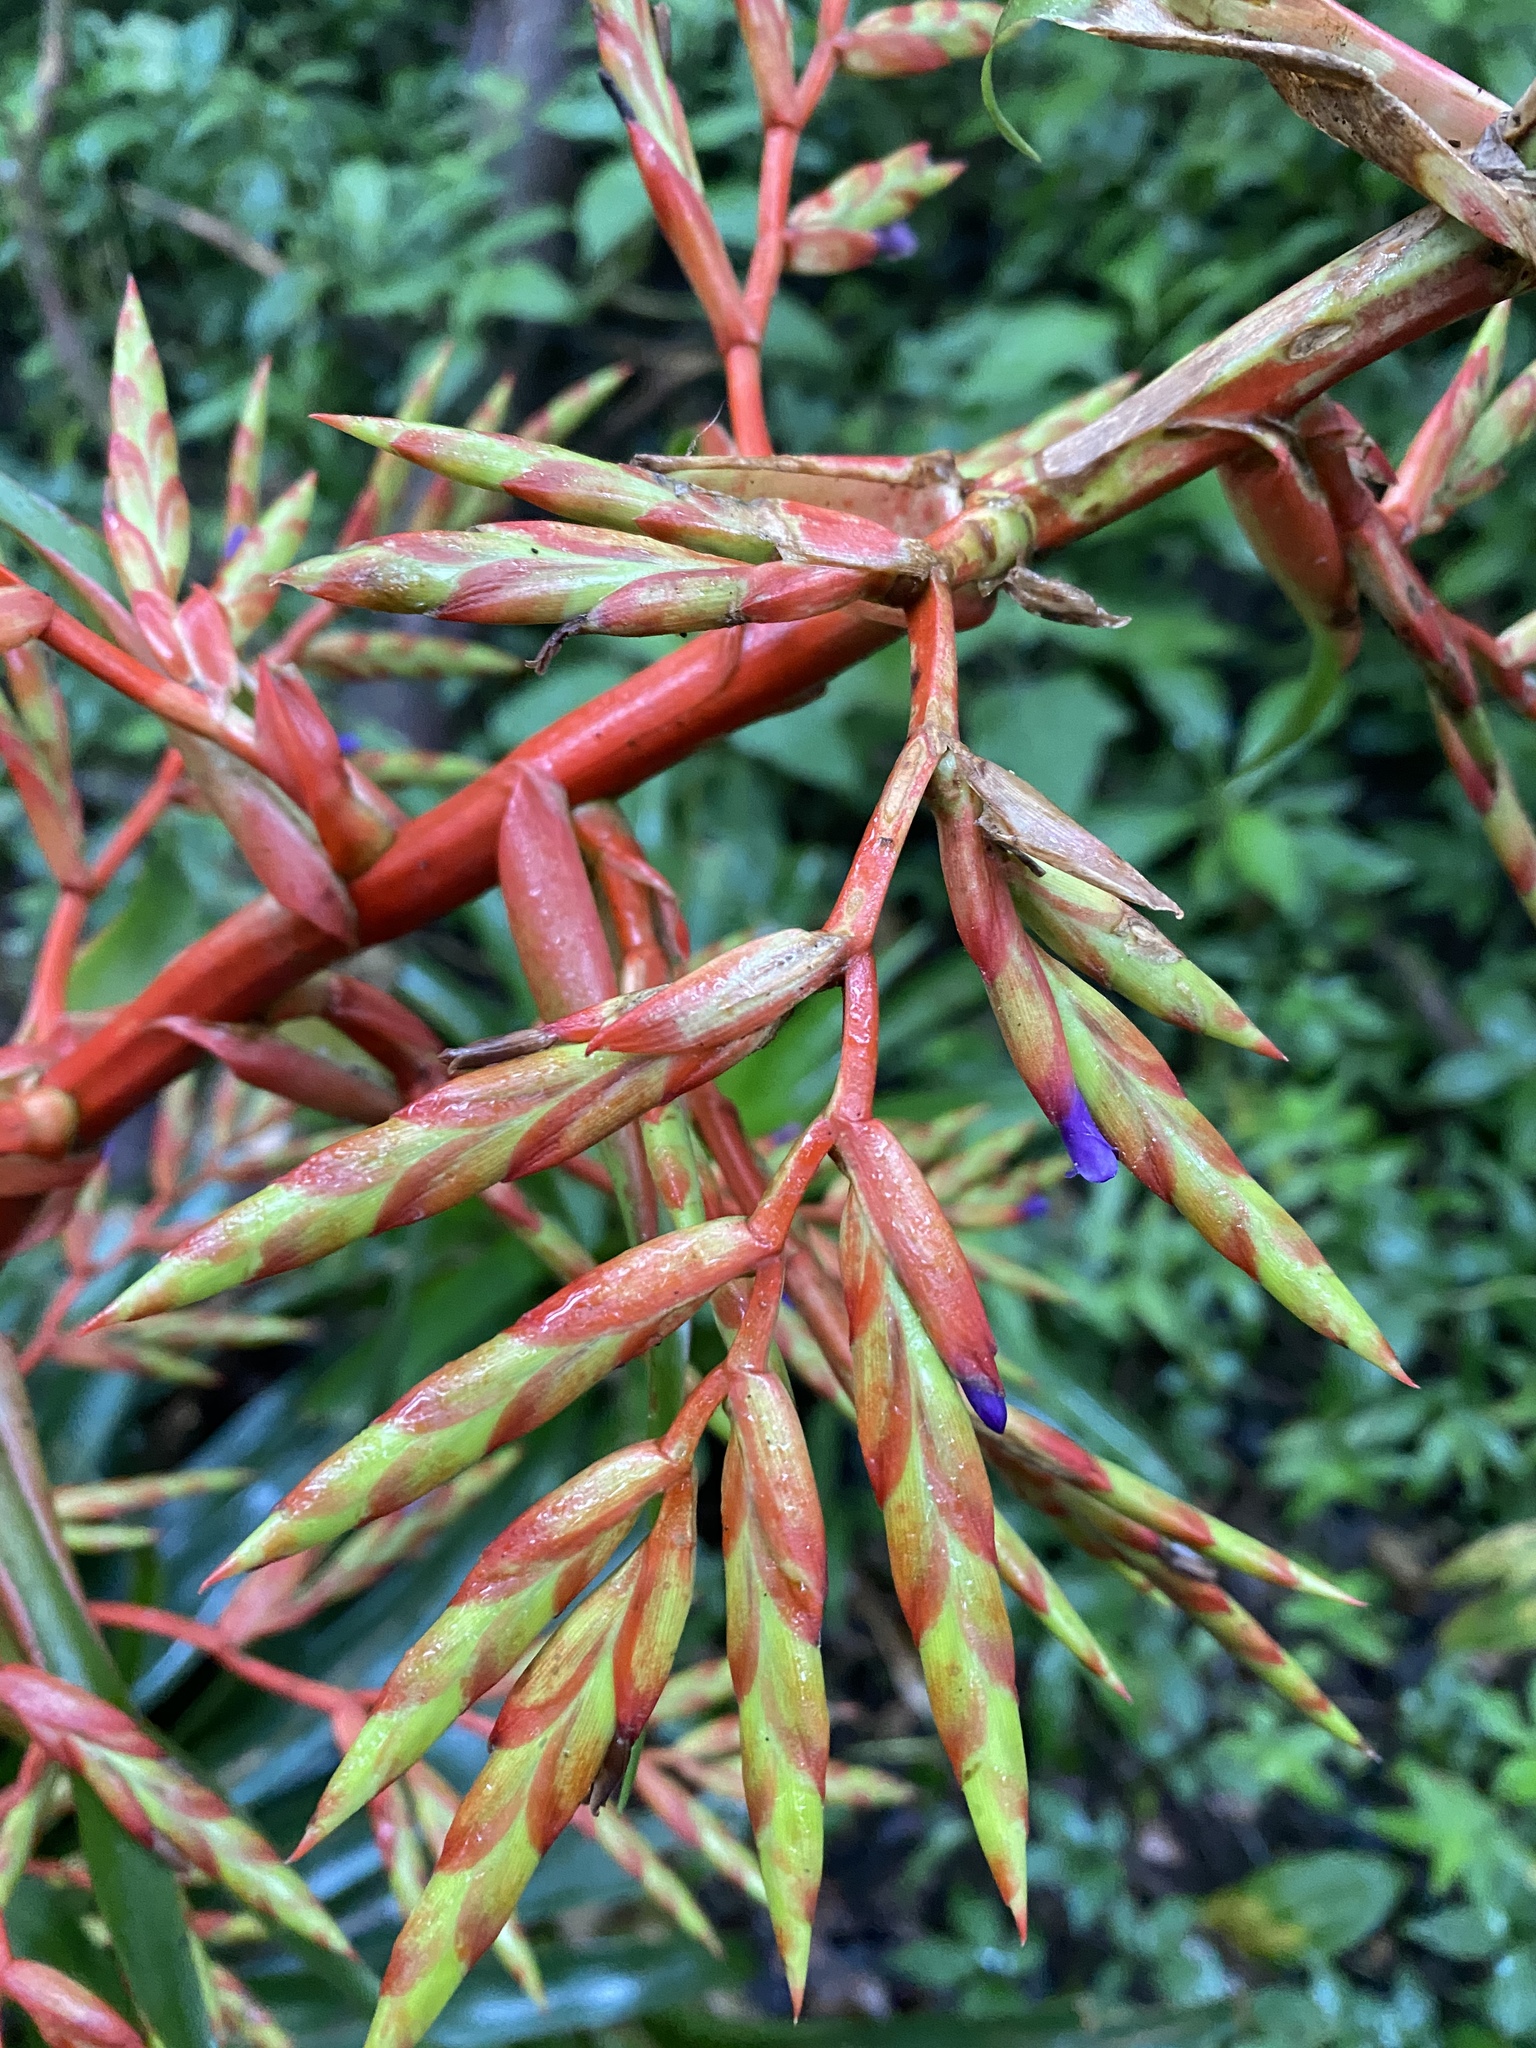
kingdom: Plantae
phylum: Tracheophyta
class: Liliopsida
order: Poales
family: Bromeliaceae
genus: Tillandsia
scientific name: Tillandsia guatemalensis
